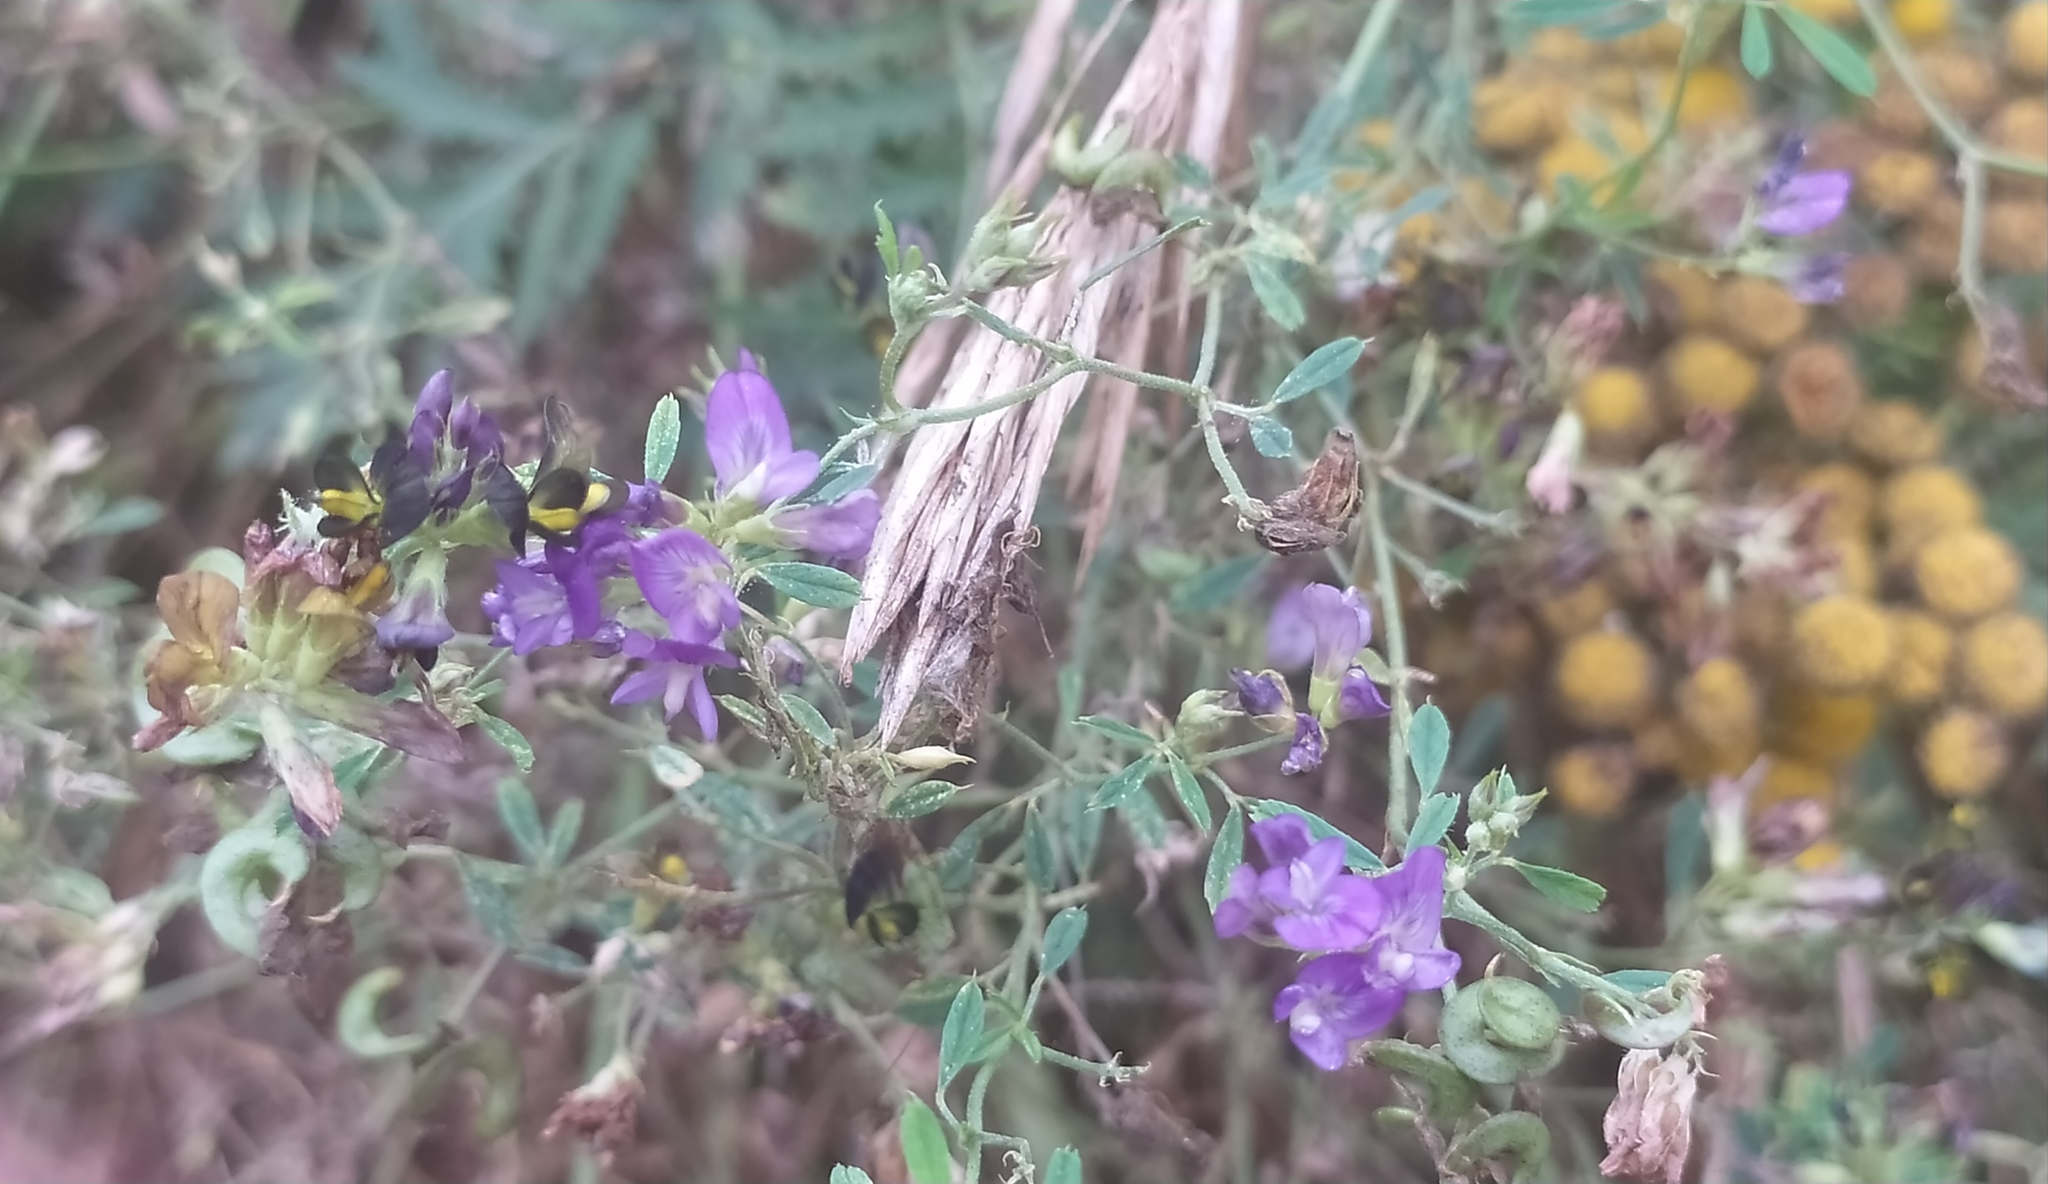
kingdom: Plantae
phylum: Tracheophyta
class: Magnoliopsida
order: Fabales
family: Fabaceae
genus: Medicago
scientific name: Medicago varia
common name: Sand lucerne
